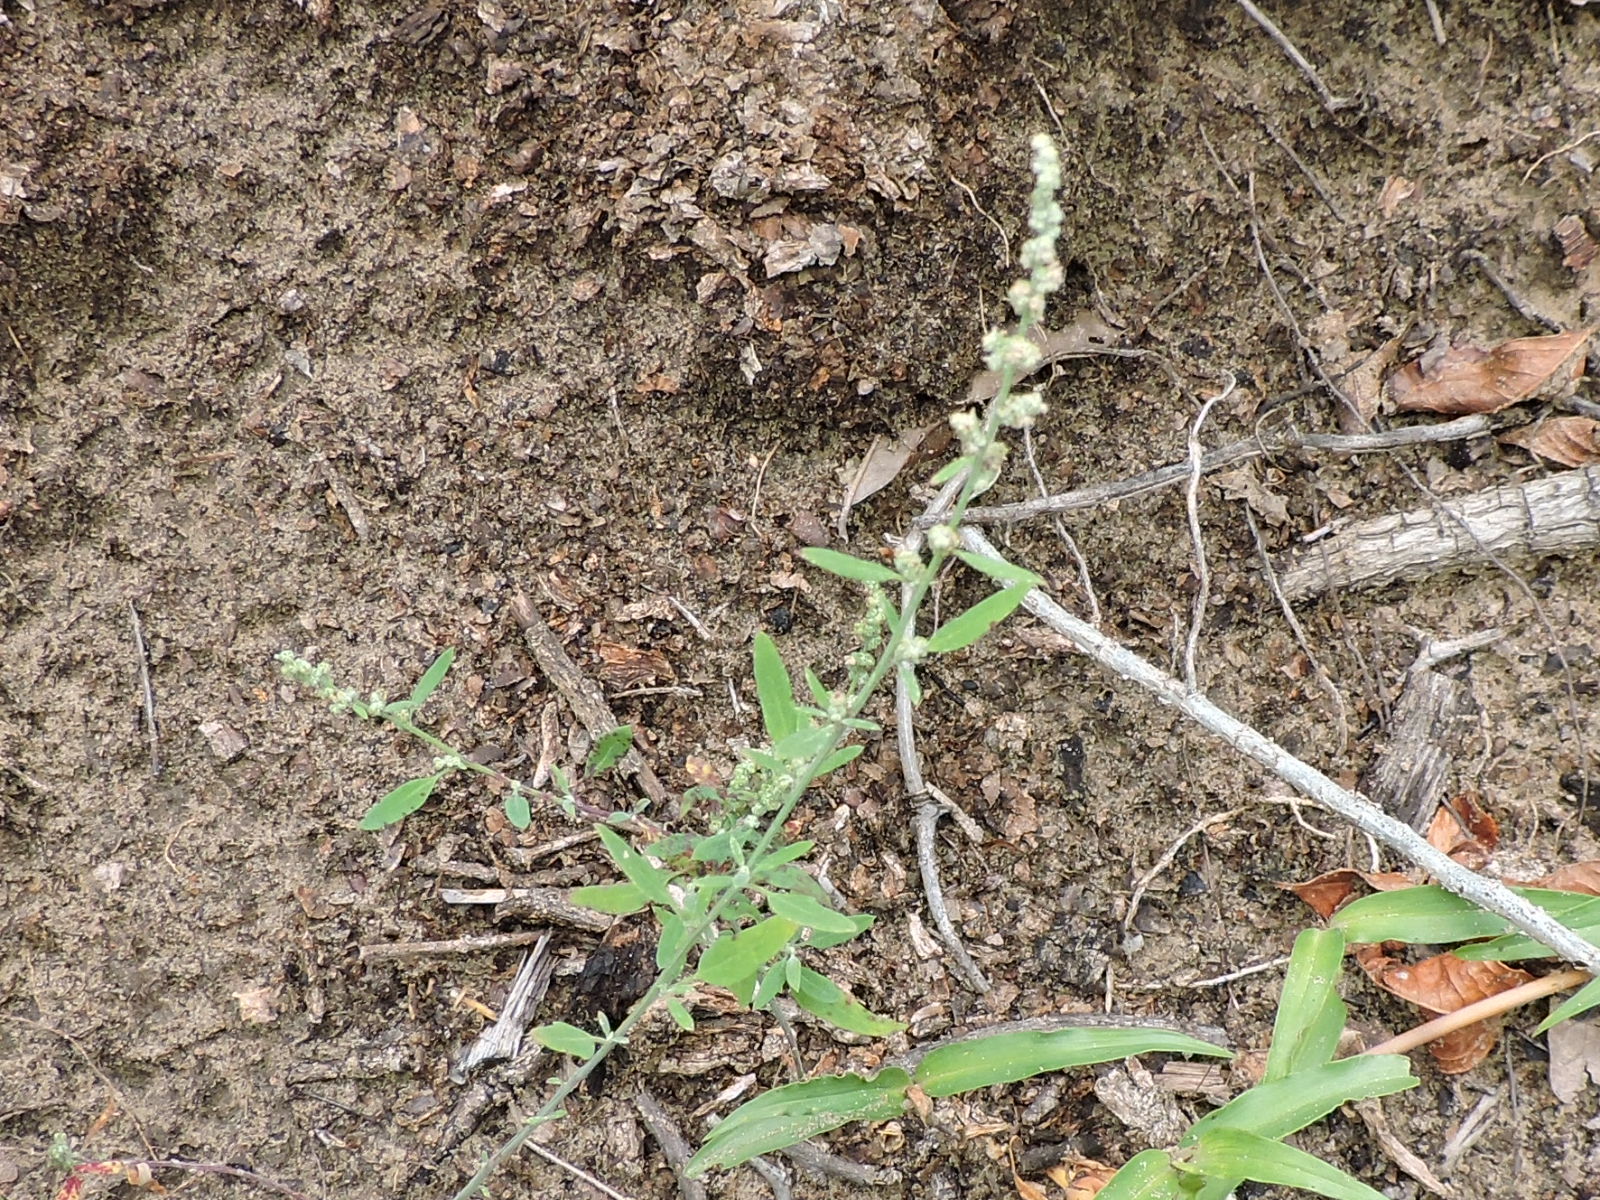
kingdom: Plantae
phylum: Tracheophyta
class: Magnoliopsida
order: Caryophyllales
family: Amaranthaceae
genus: Chenopodium
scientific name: Chenopodium berlandieri
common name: Pit-seed goosefoot
